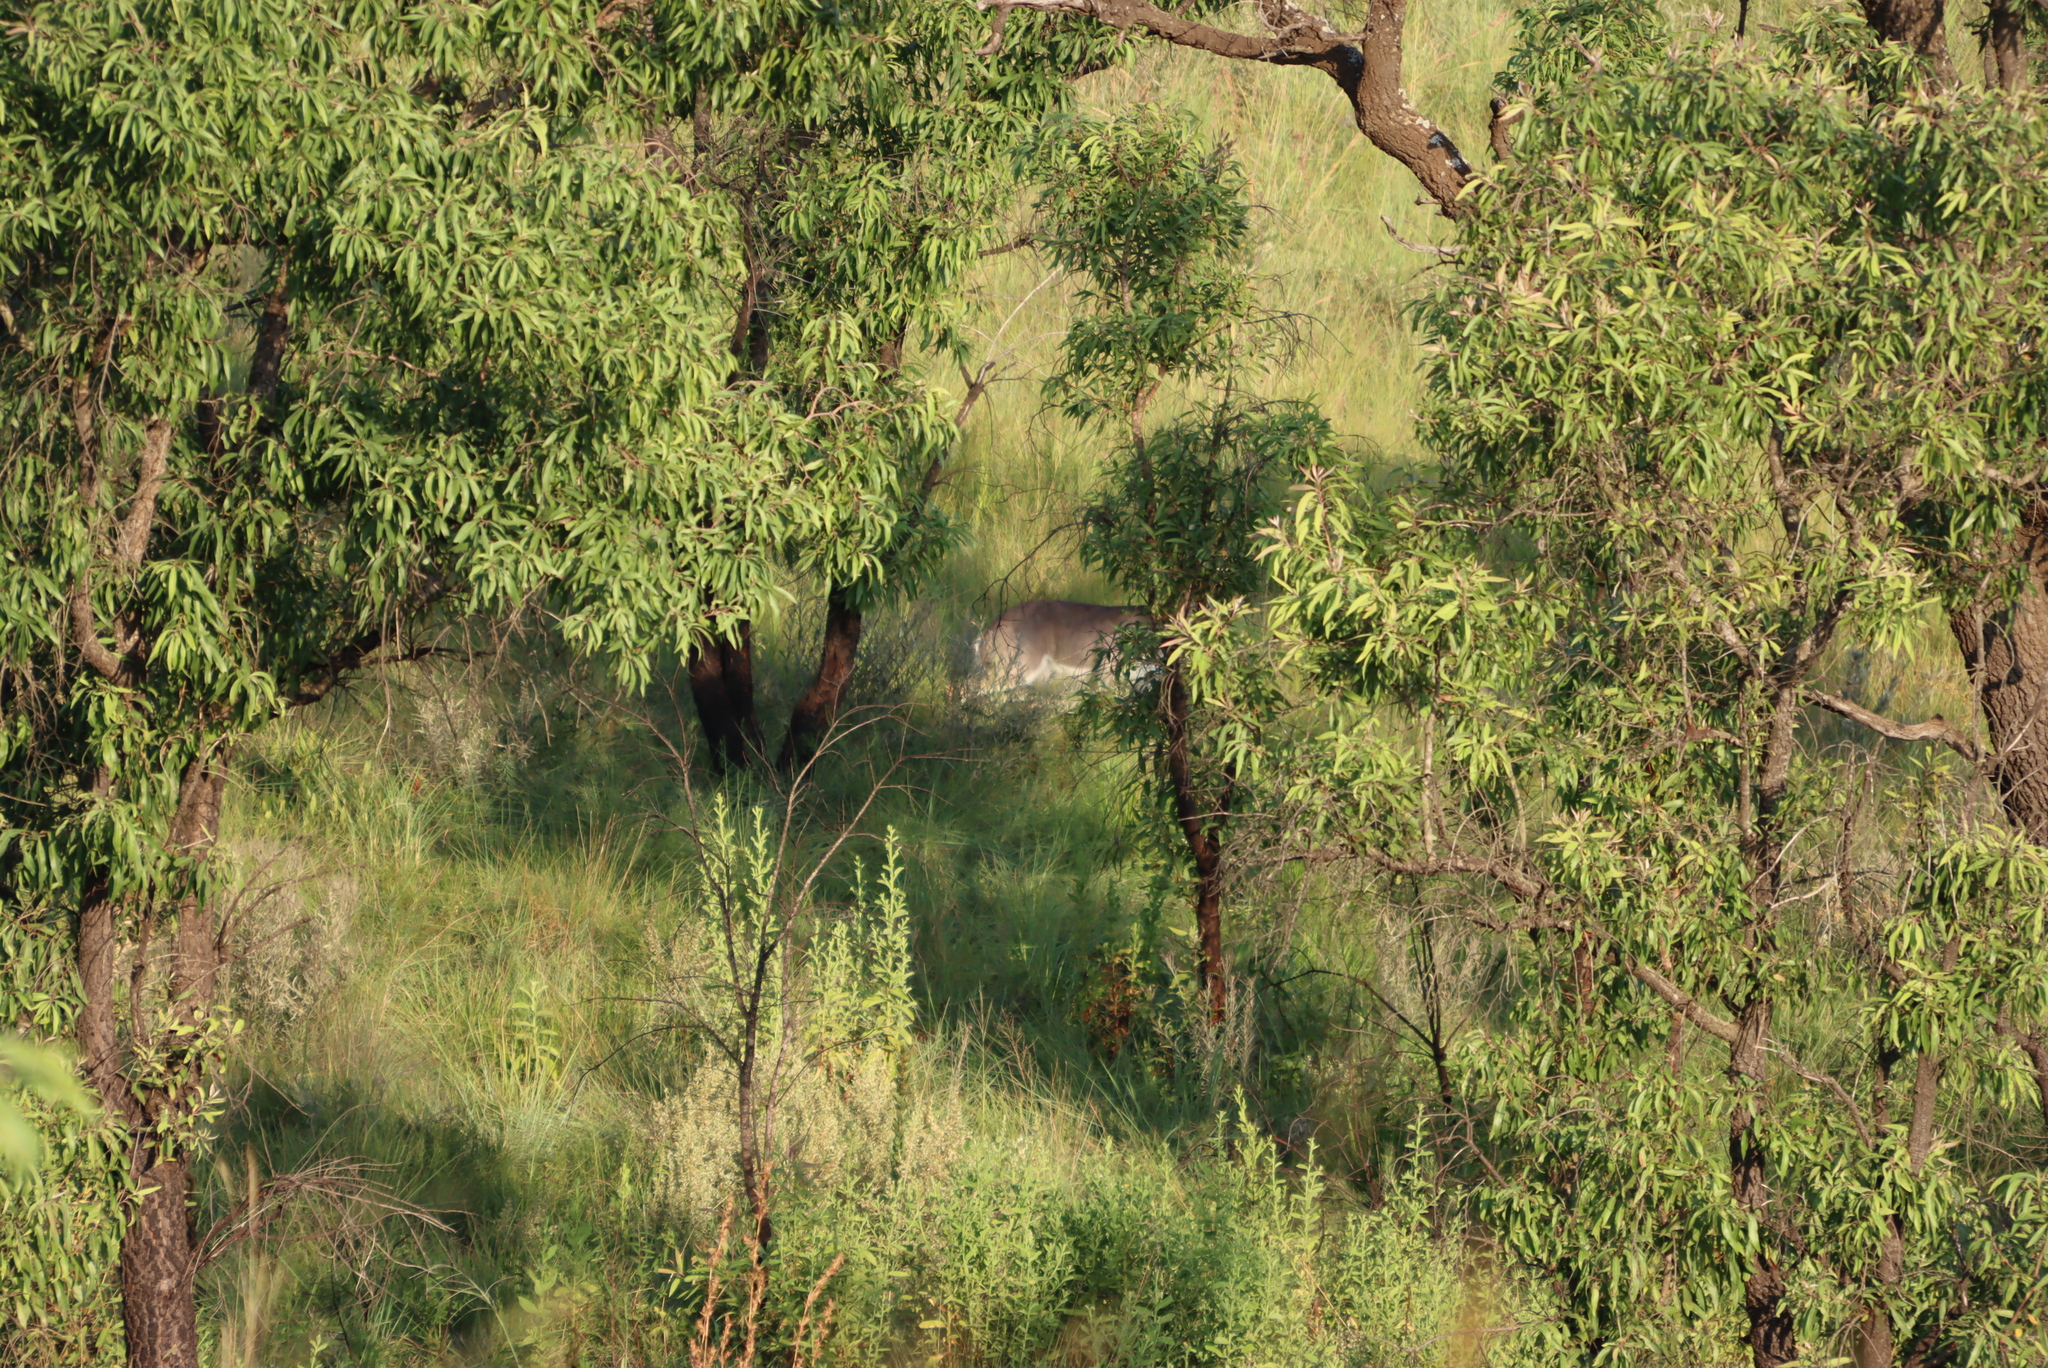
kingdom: Plantae
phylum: Tracheophyta
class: Magnoliopsida
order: Proteales
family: Proteaceae
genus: Faurea
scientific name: Faurea saligna
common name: African bean
